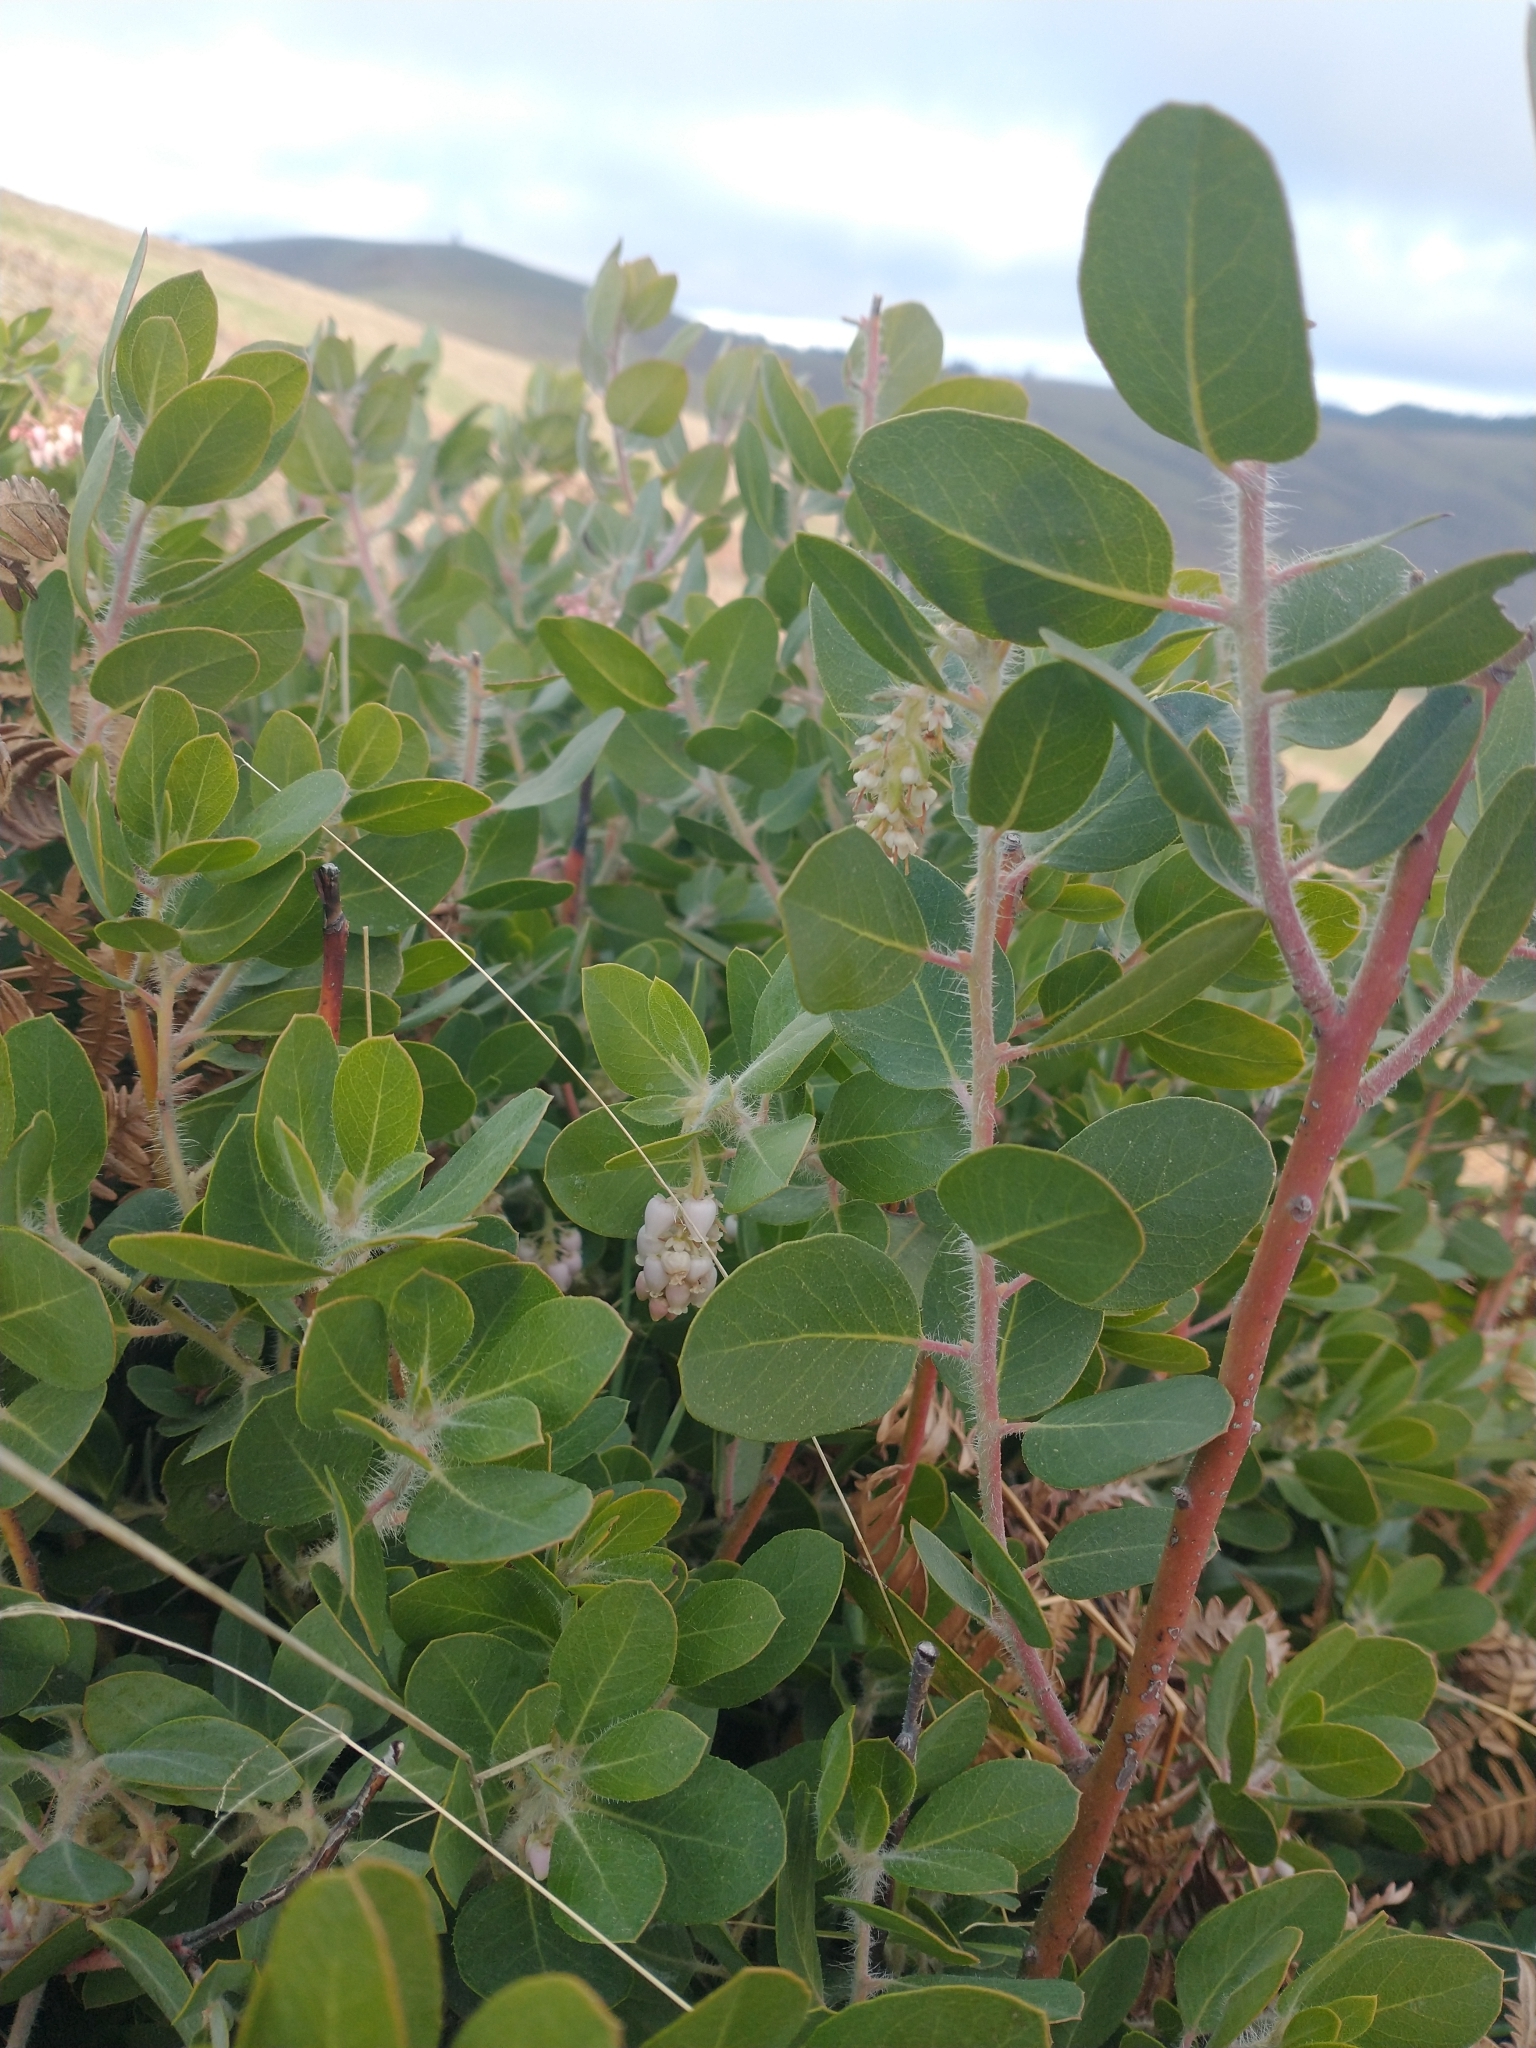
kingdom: Plantae
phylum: Tracheophyta
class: Magnoliopsida
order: Ericales
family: Ericaceae
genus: Arctostaphylos
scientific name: Arctostaphylos columbiana
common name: Bristly bearberry
